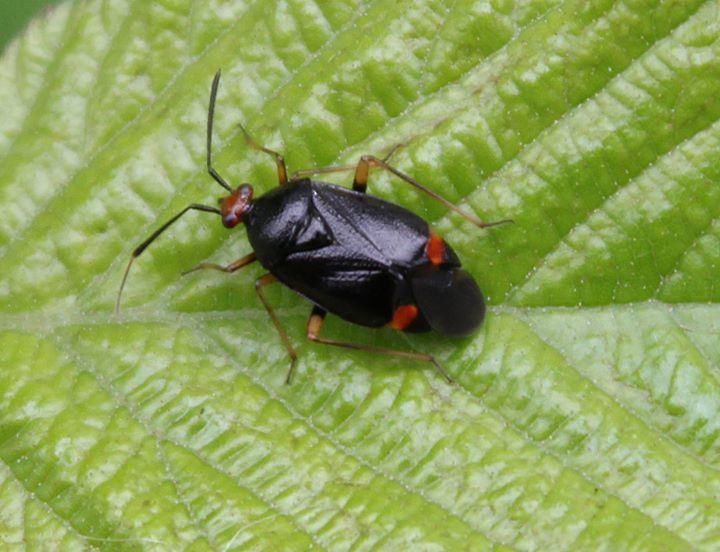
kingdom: Animalia
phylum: Arthropoda
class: Insecta
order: Hemiptera
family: Miridae
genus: Deraeocoris
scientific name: Deraeocoris ruber
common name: Plant bug
